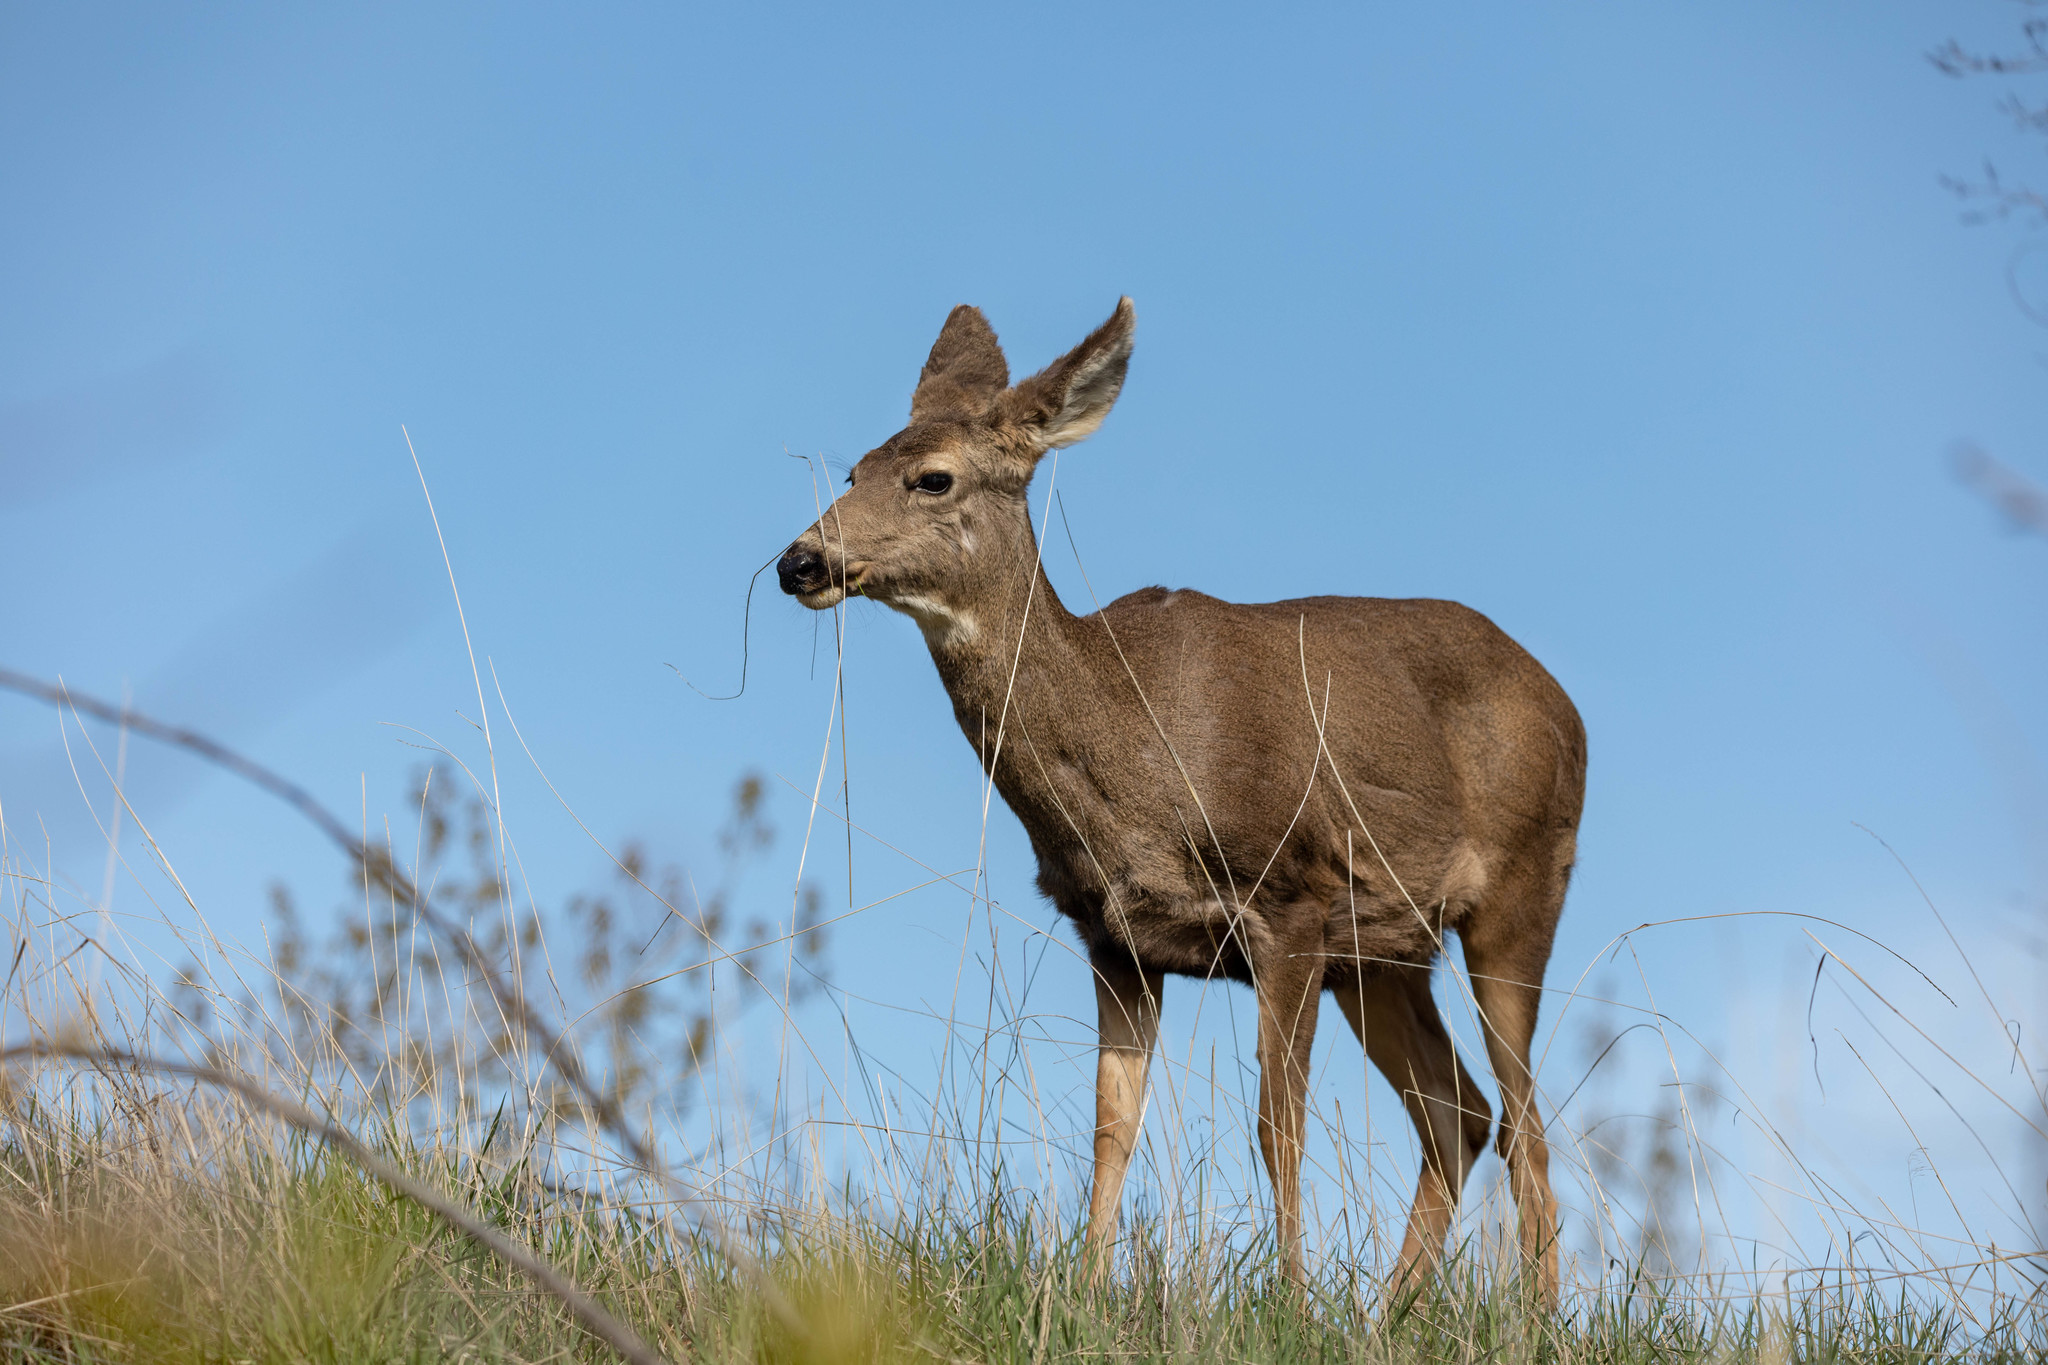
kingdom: Animalia
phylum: Chordata
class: Mammalia
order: Artiodactyla
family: Cervidae
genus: Odocoileus
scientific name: Odocoileus hemionus
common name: Mule deer
